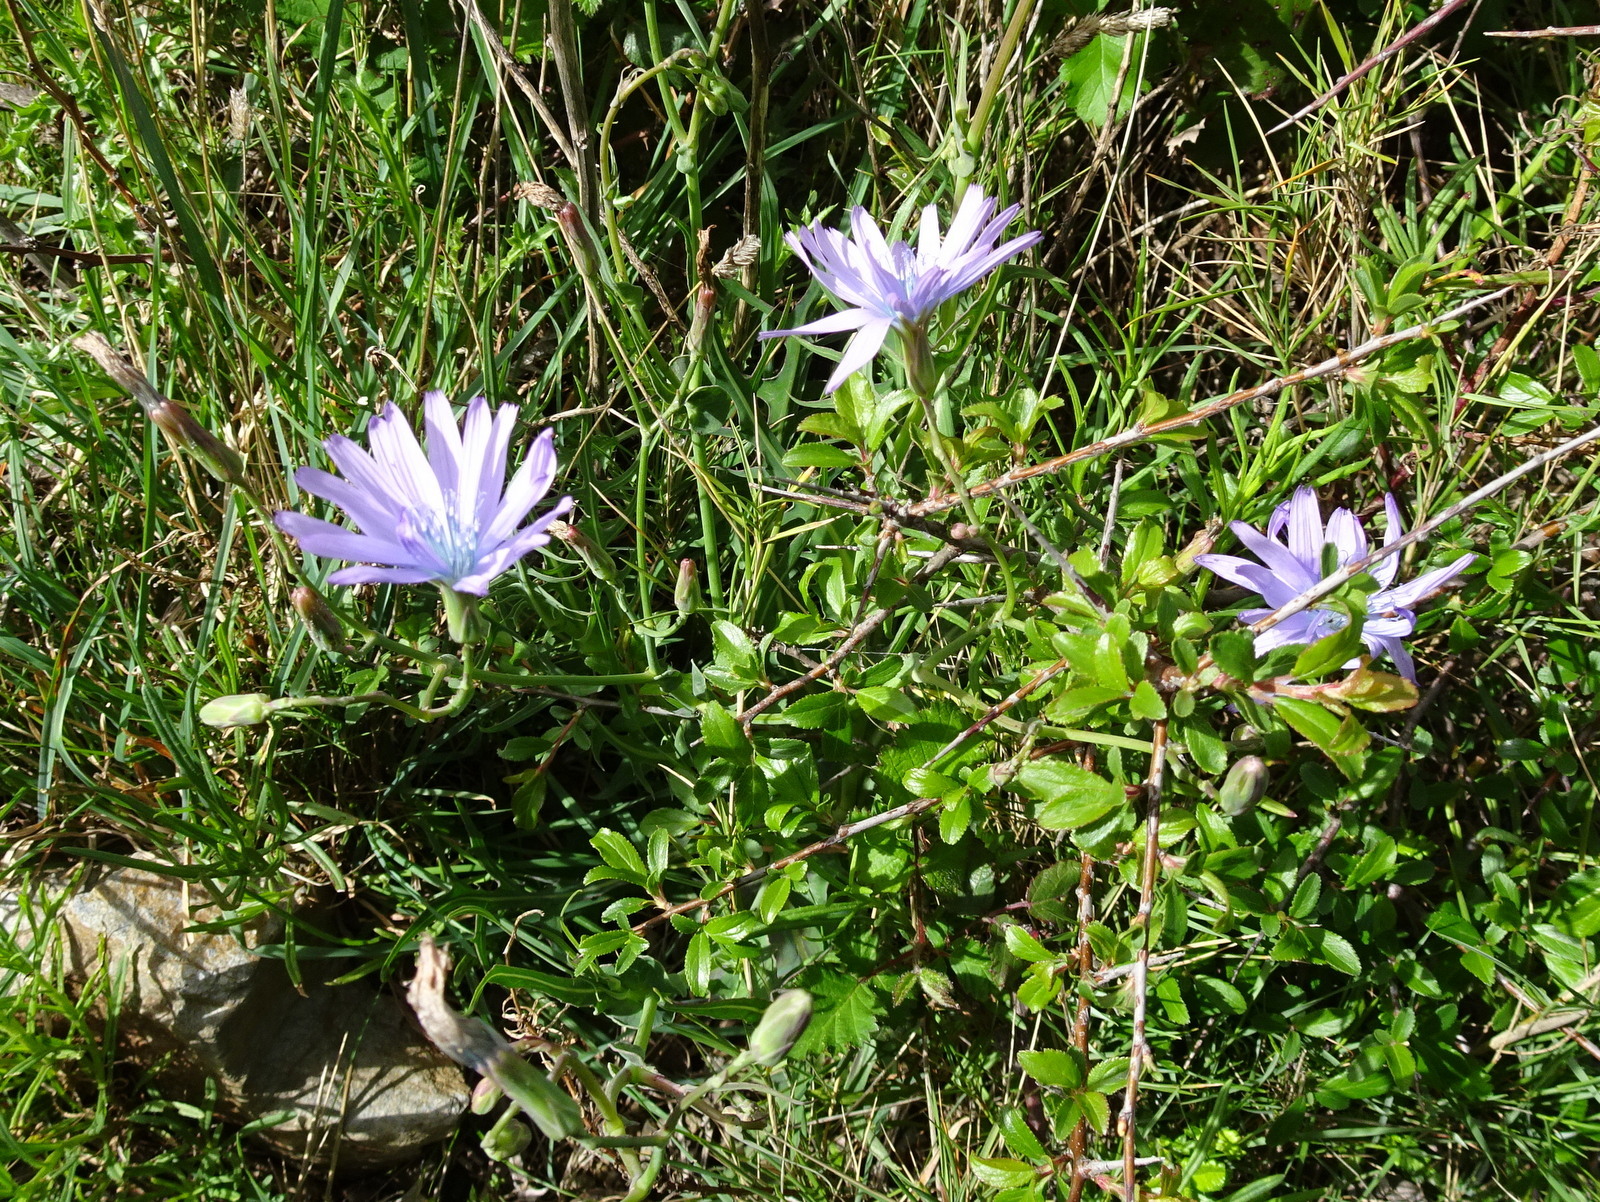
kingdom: Plantae
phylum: Tracheophyta
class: Magnoliopsida
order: Asterales
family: Asteraceae
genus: Lactuca
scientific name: Lactuca perennis
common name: Mountain lettuce
